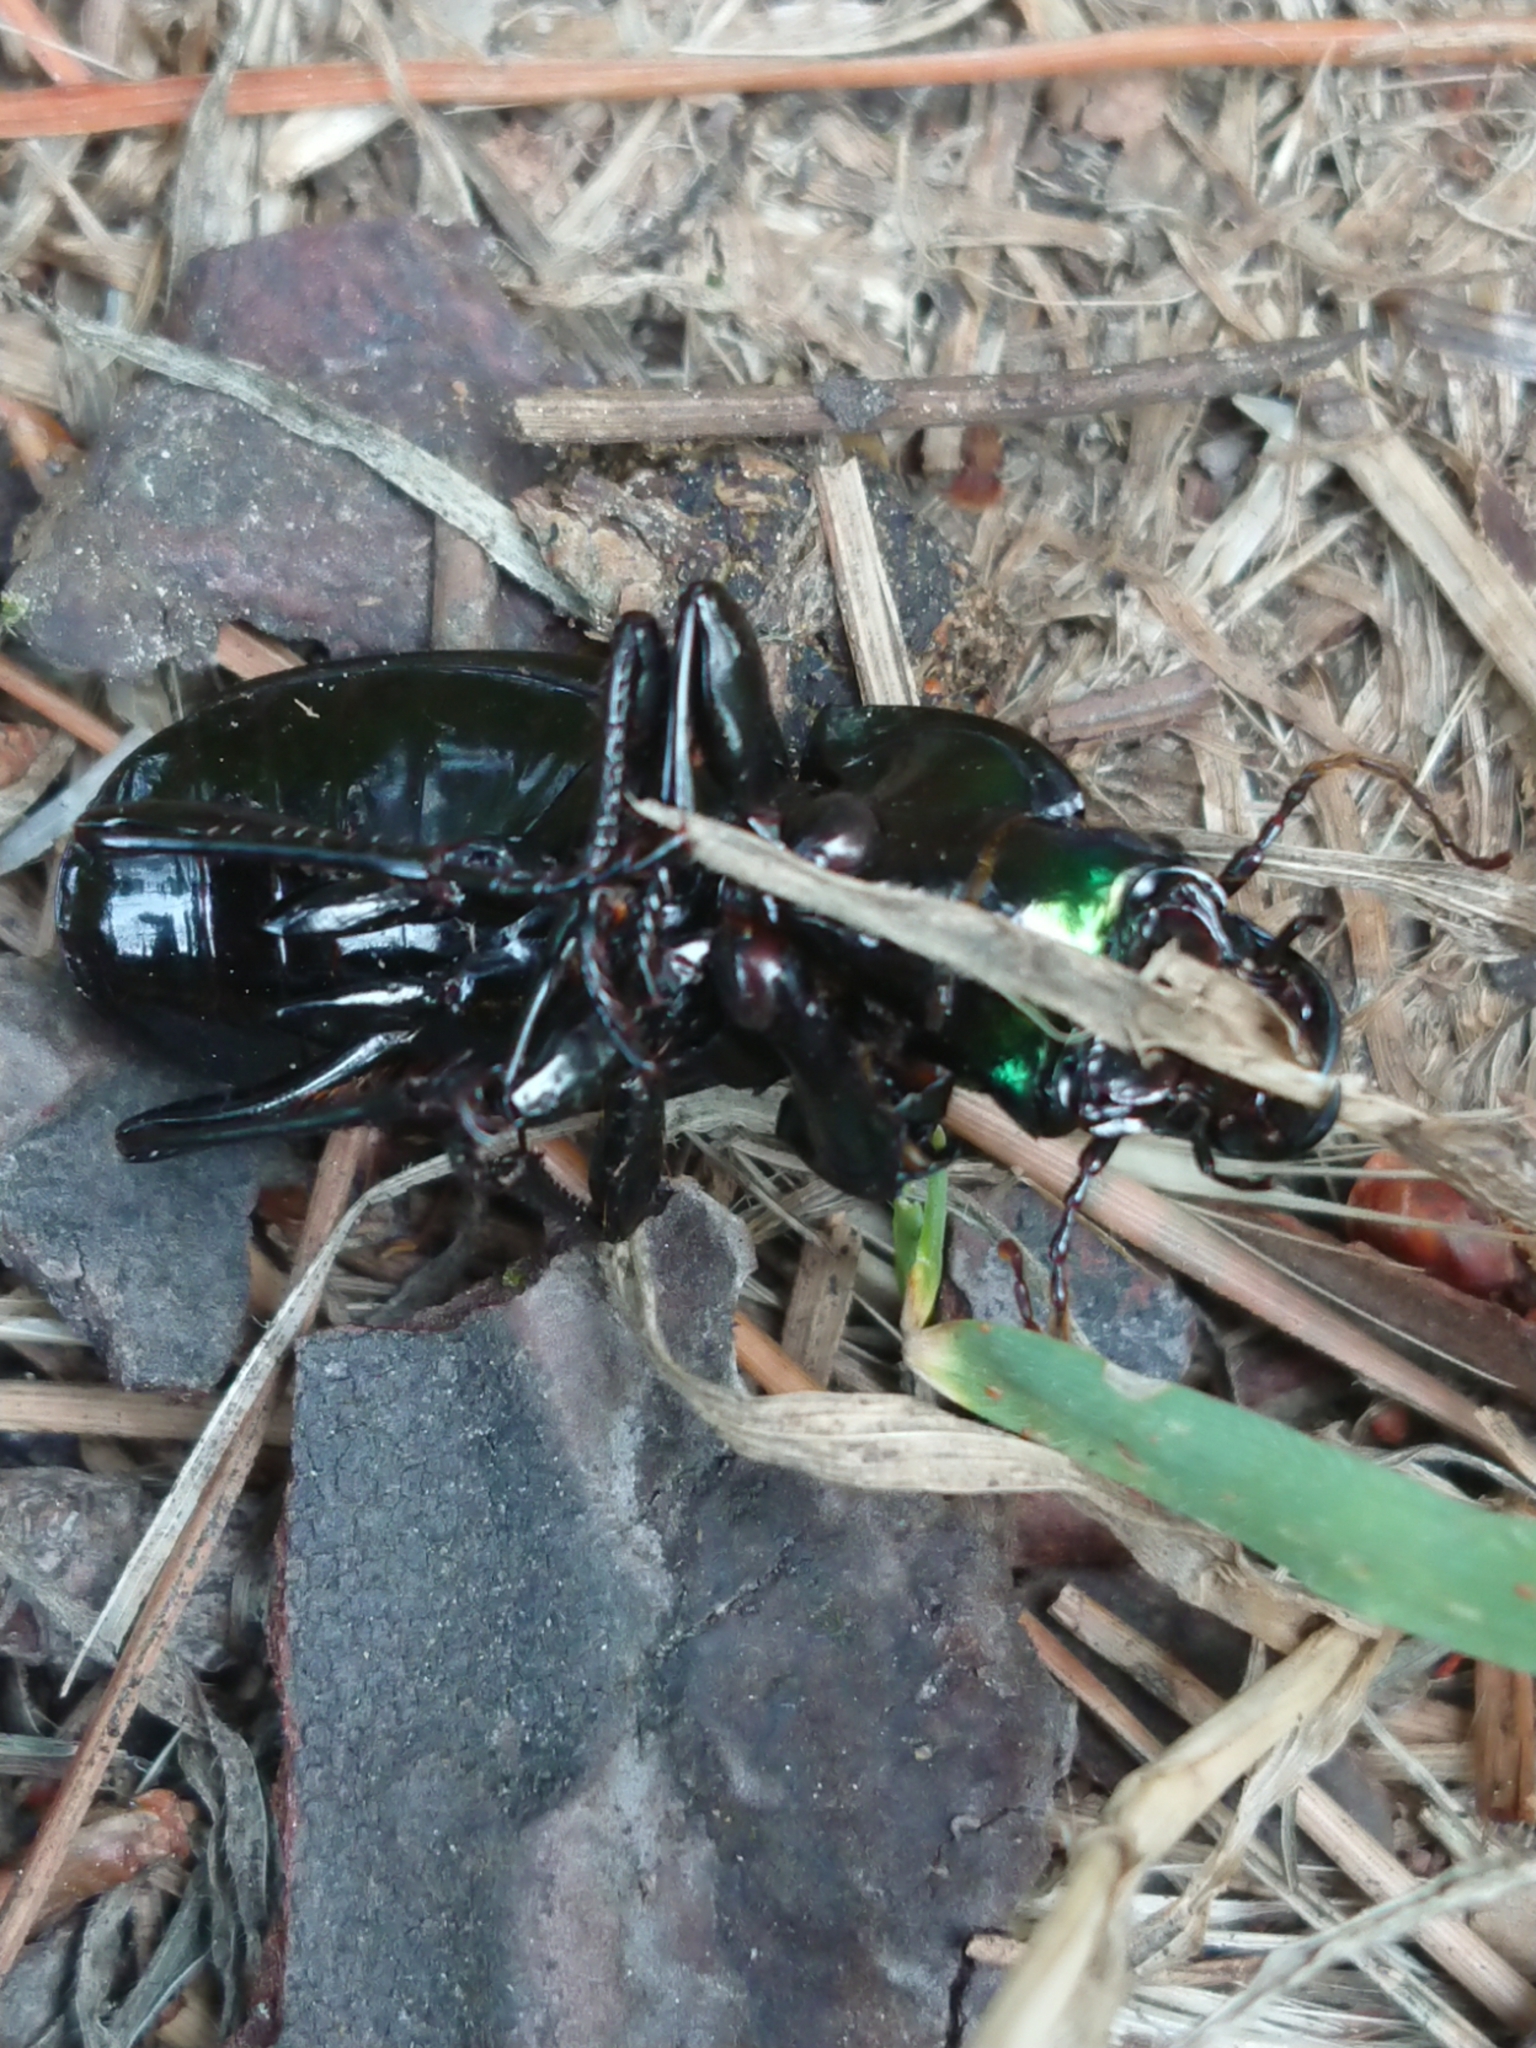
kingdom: Animalia
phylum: Arthropoda
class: Insecta
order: Coleoptera
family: Carabidae
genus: Megadromus
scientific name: Megadromus antarcticus
